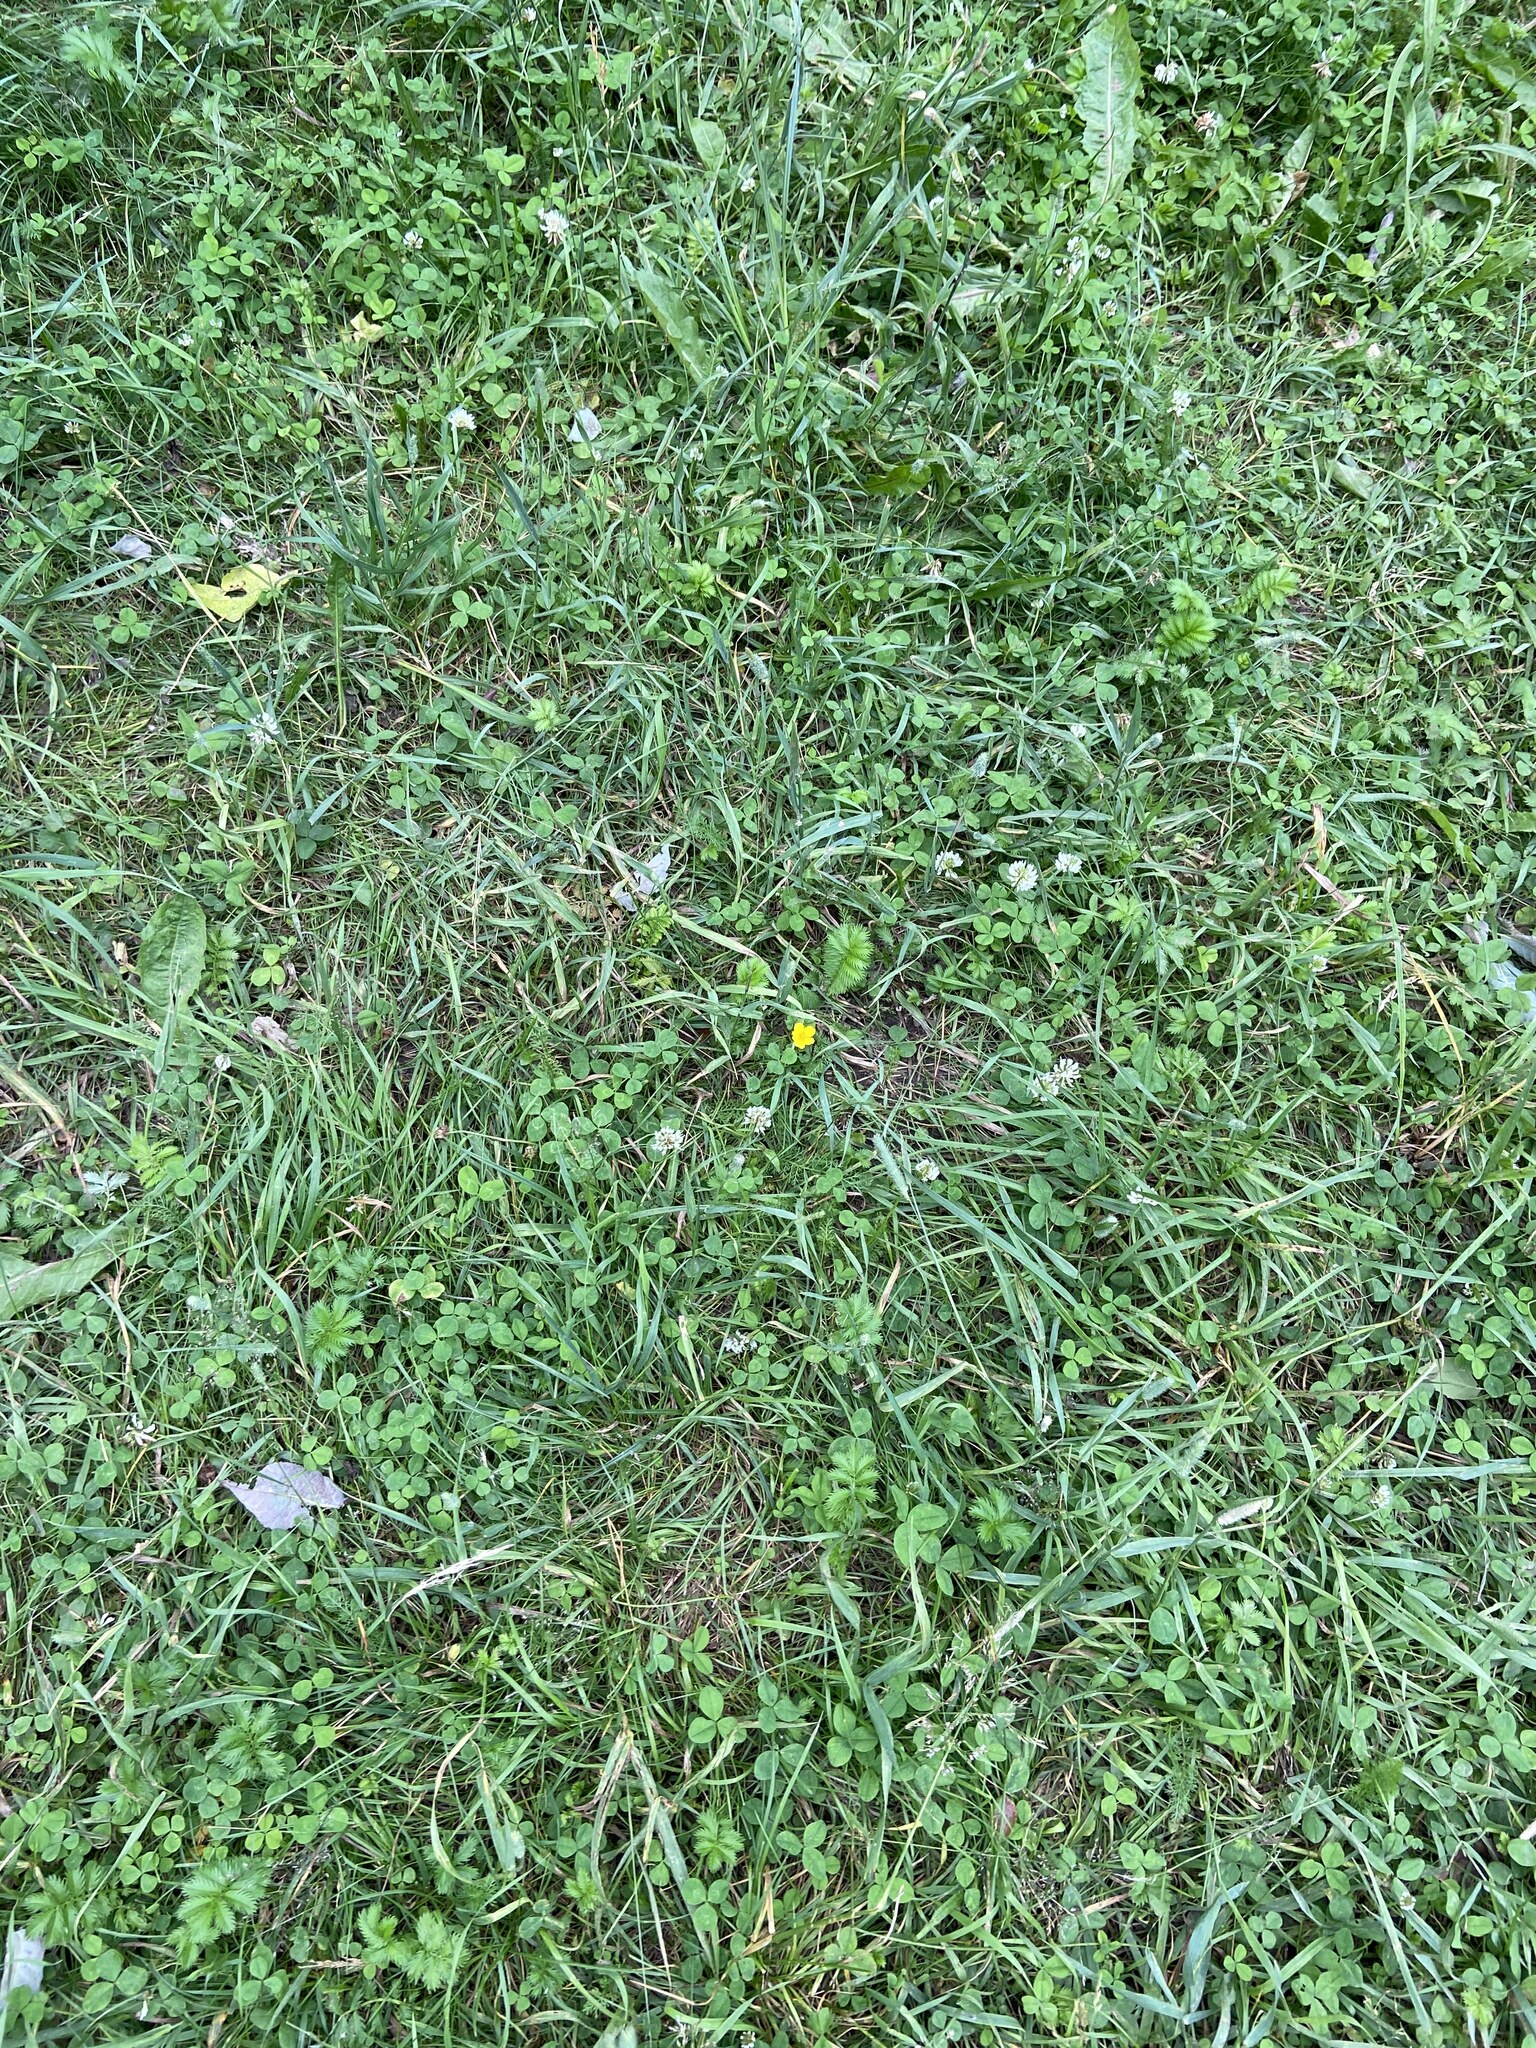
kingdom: Plantae
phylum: Tracheophyta
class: Magnoliopsida
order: Rosales
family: Rosaceae
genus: Argentina
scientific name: Argentina anserina
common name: Common silverweed
